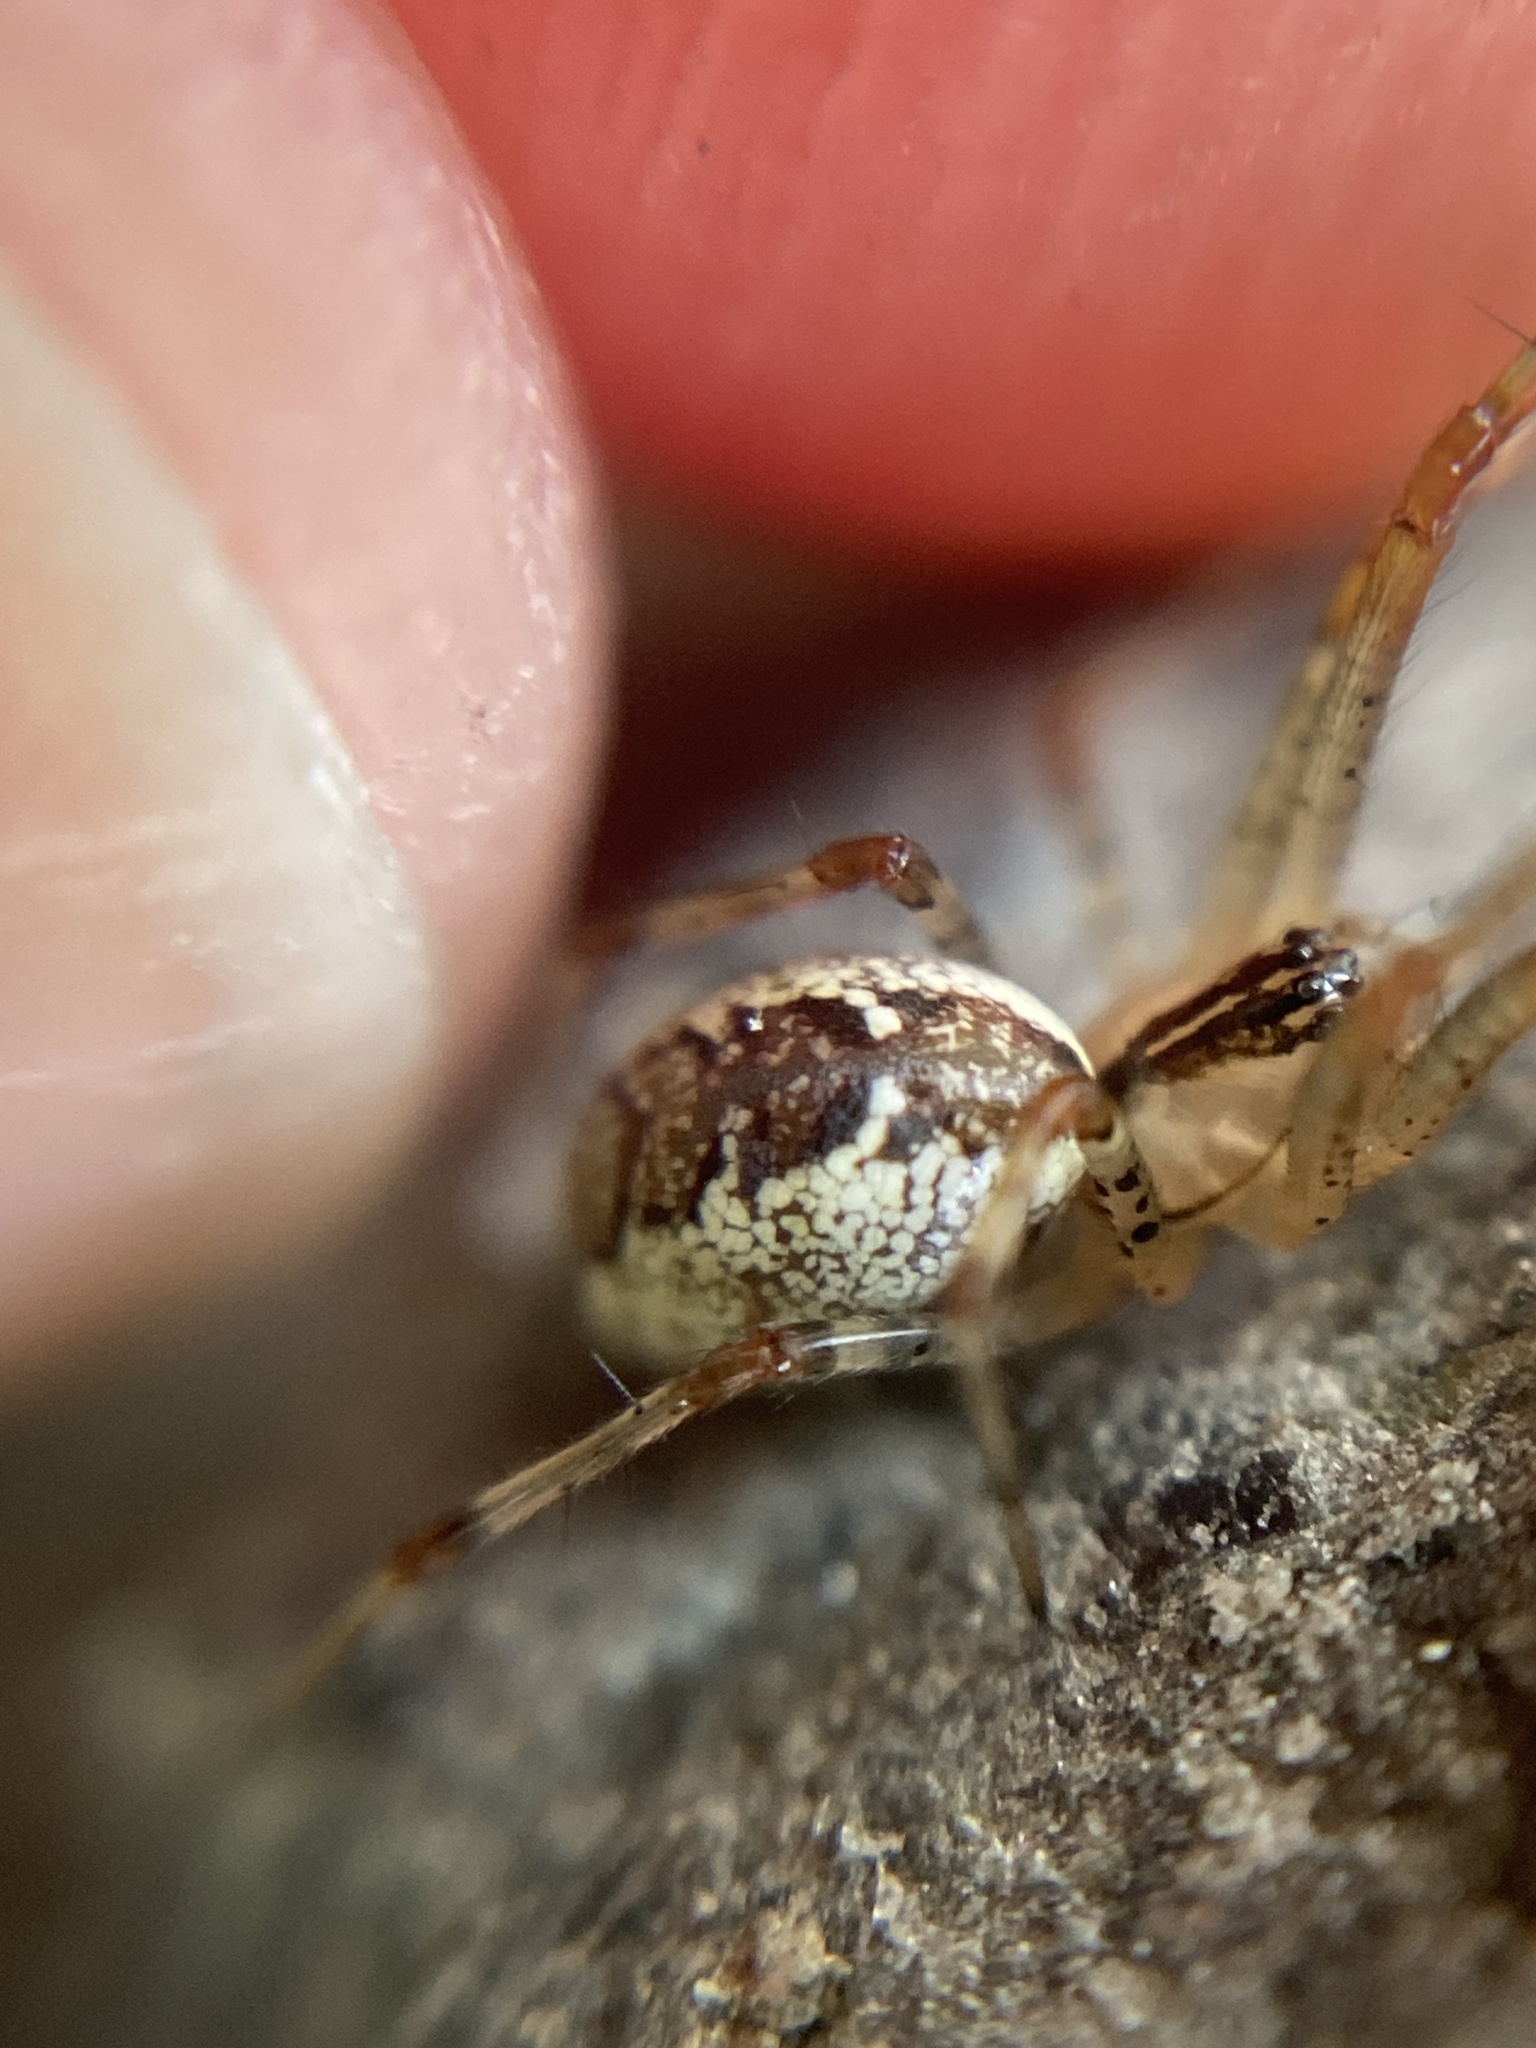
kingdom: Animalia
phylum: Arthropoda
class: Arachnida
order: Araneae
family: Linyphiidae
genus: Pityohyphantes
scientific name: Pityohyphantes phrygianus
